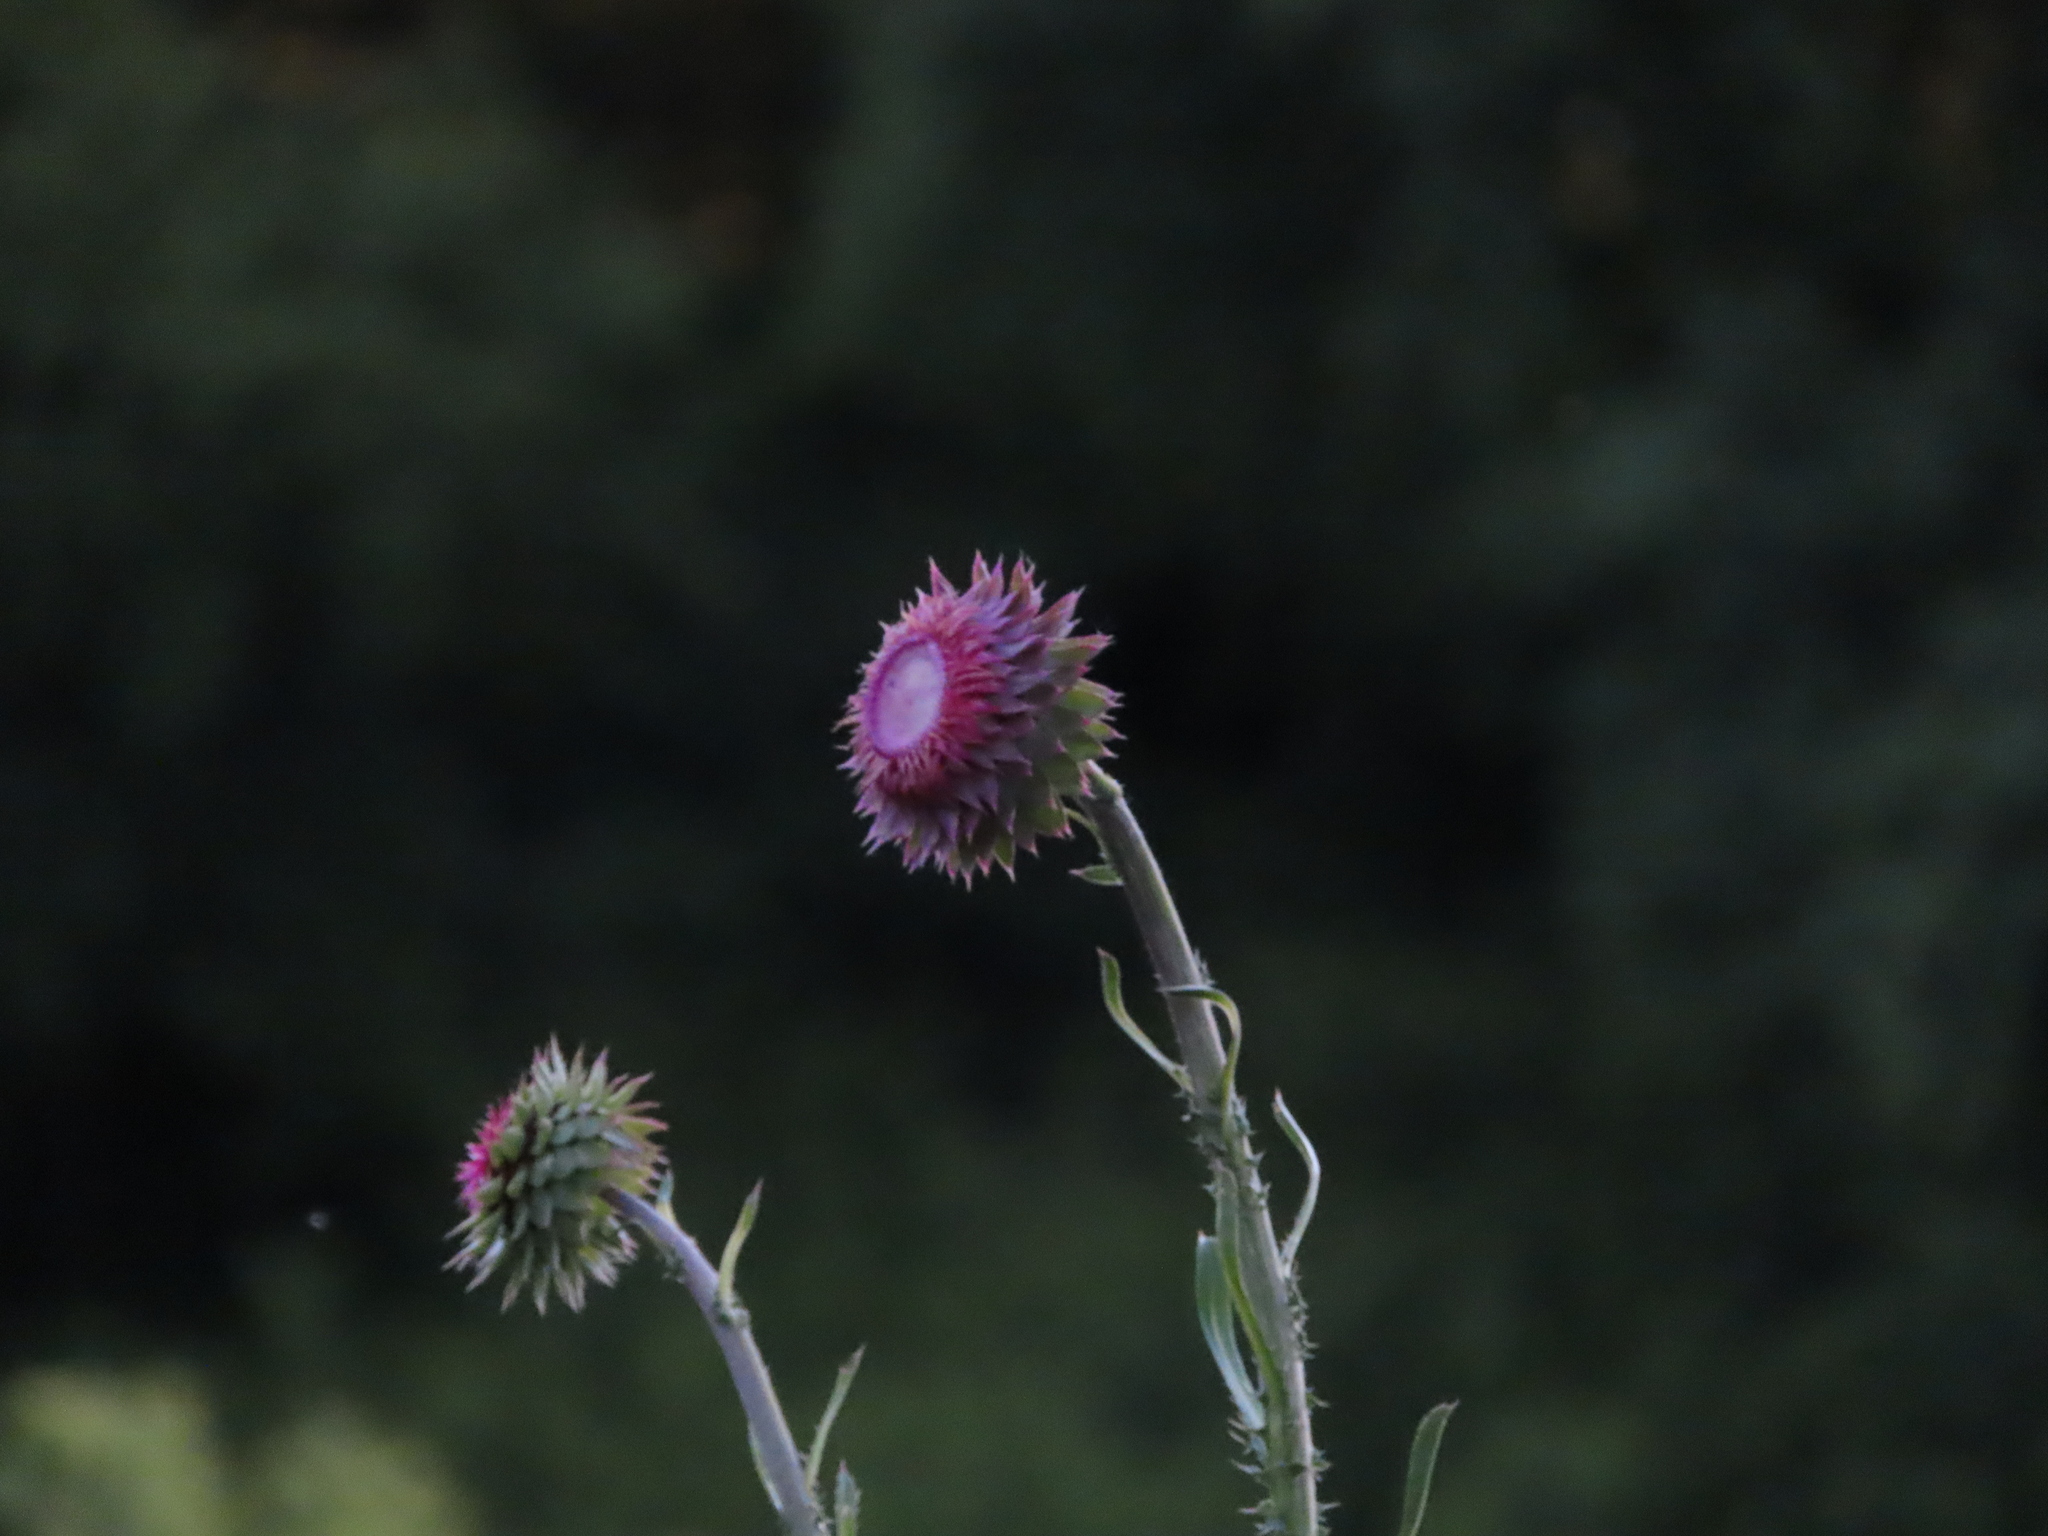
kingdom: Plantae
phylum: Tracheophyta
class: Magnoliopsida
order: Asterales
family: Asteraceae
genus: Carduus
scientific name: Carduus nutans
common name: Musk thistle
